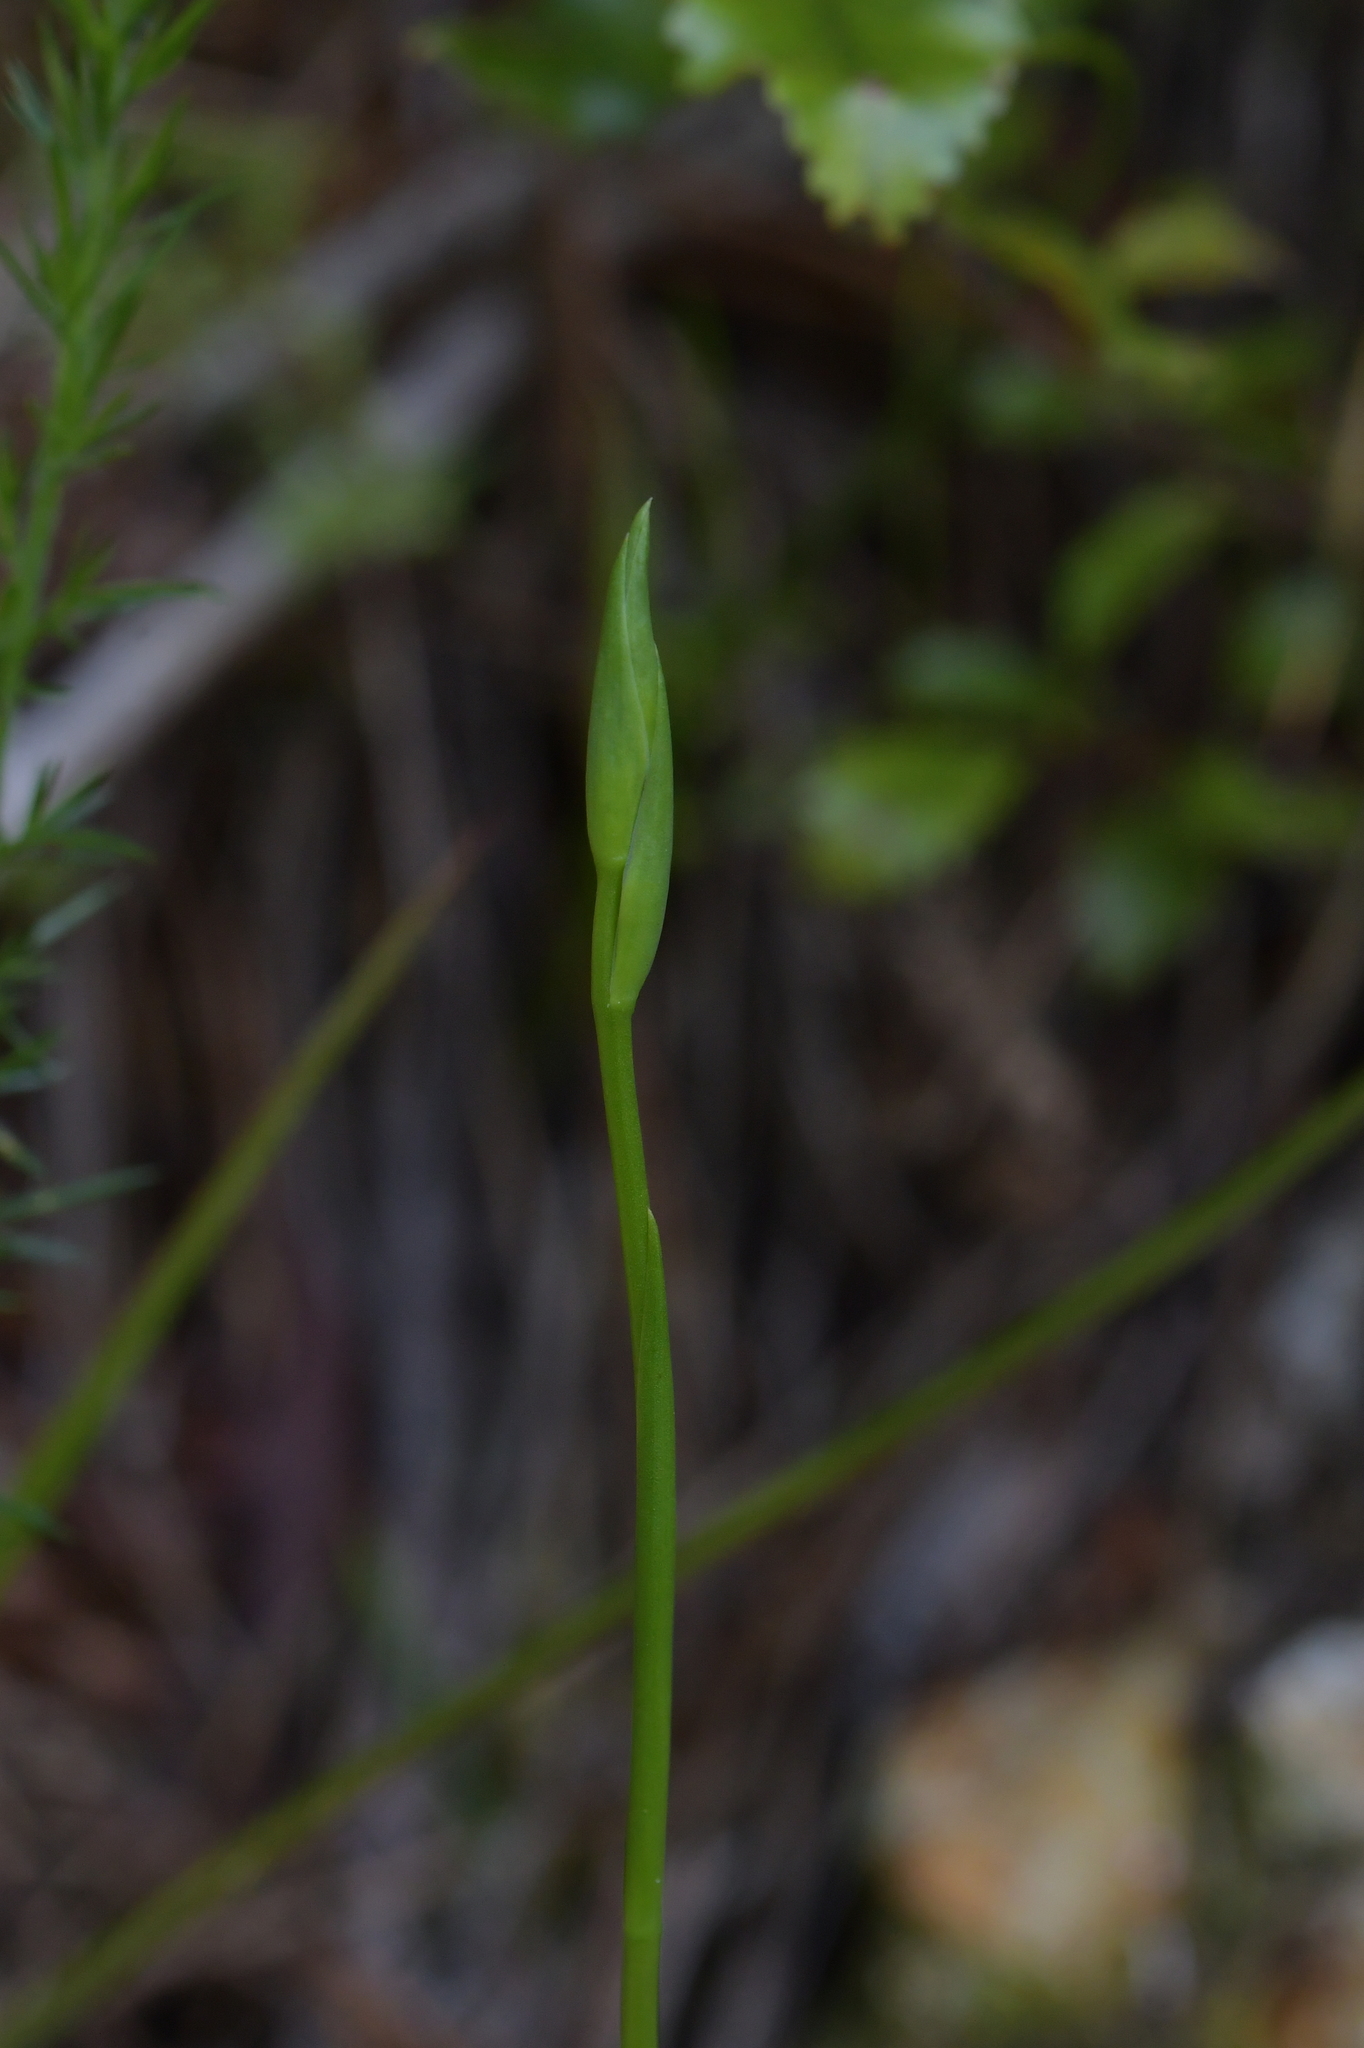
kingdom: Plantae
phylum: Tracheophyta
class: Liliopsida
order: Asparagales
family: Orchidaceae
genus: Orthoceras
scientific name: Orthoceras novae-zeelandiae
